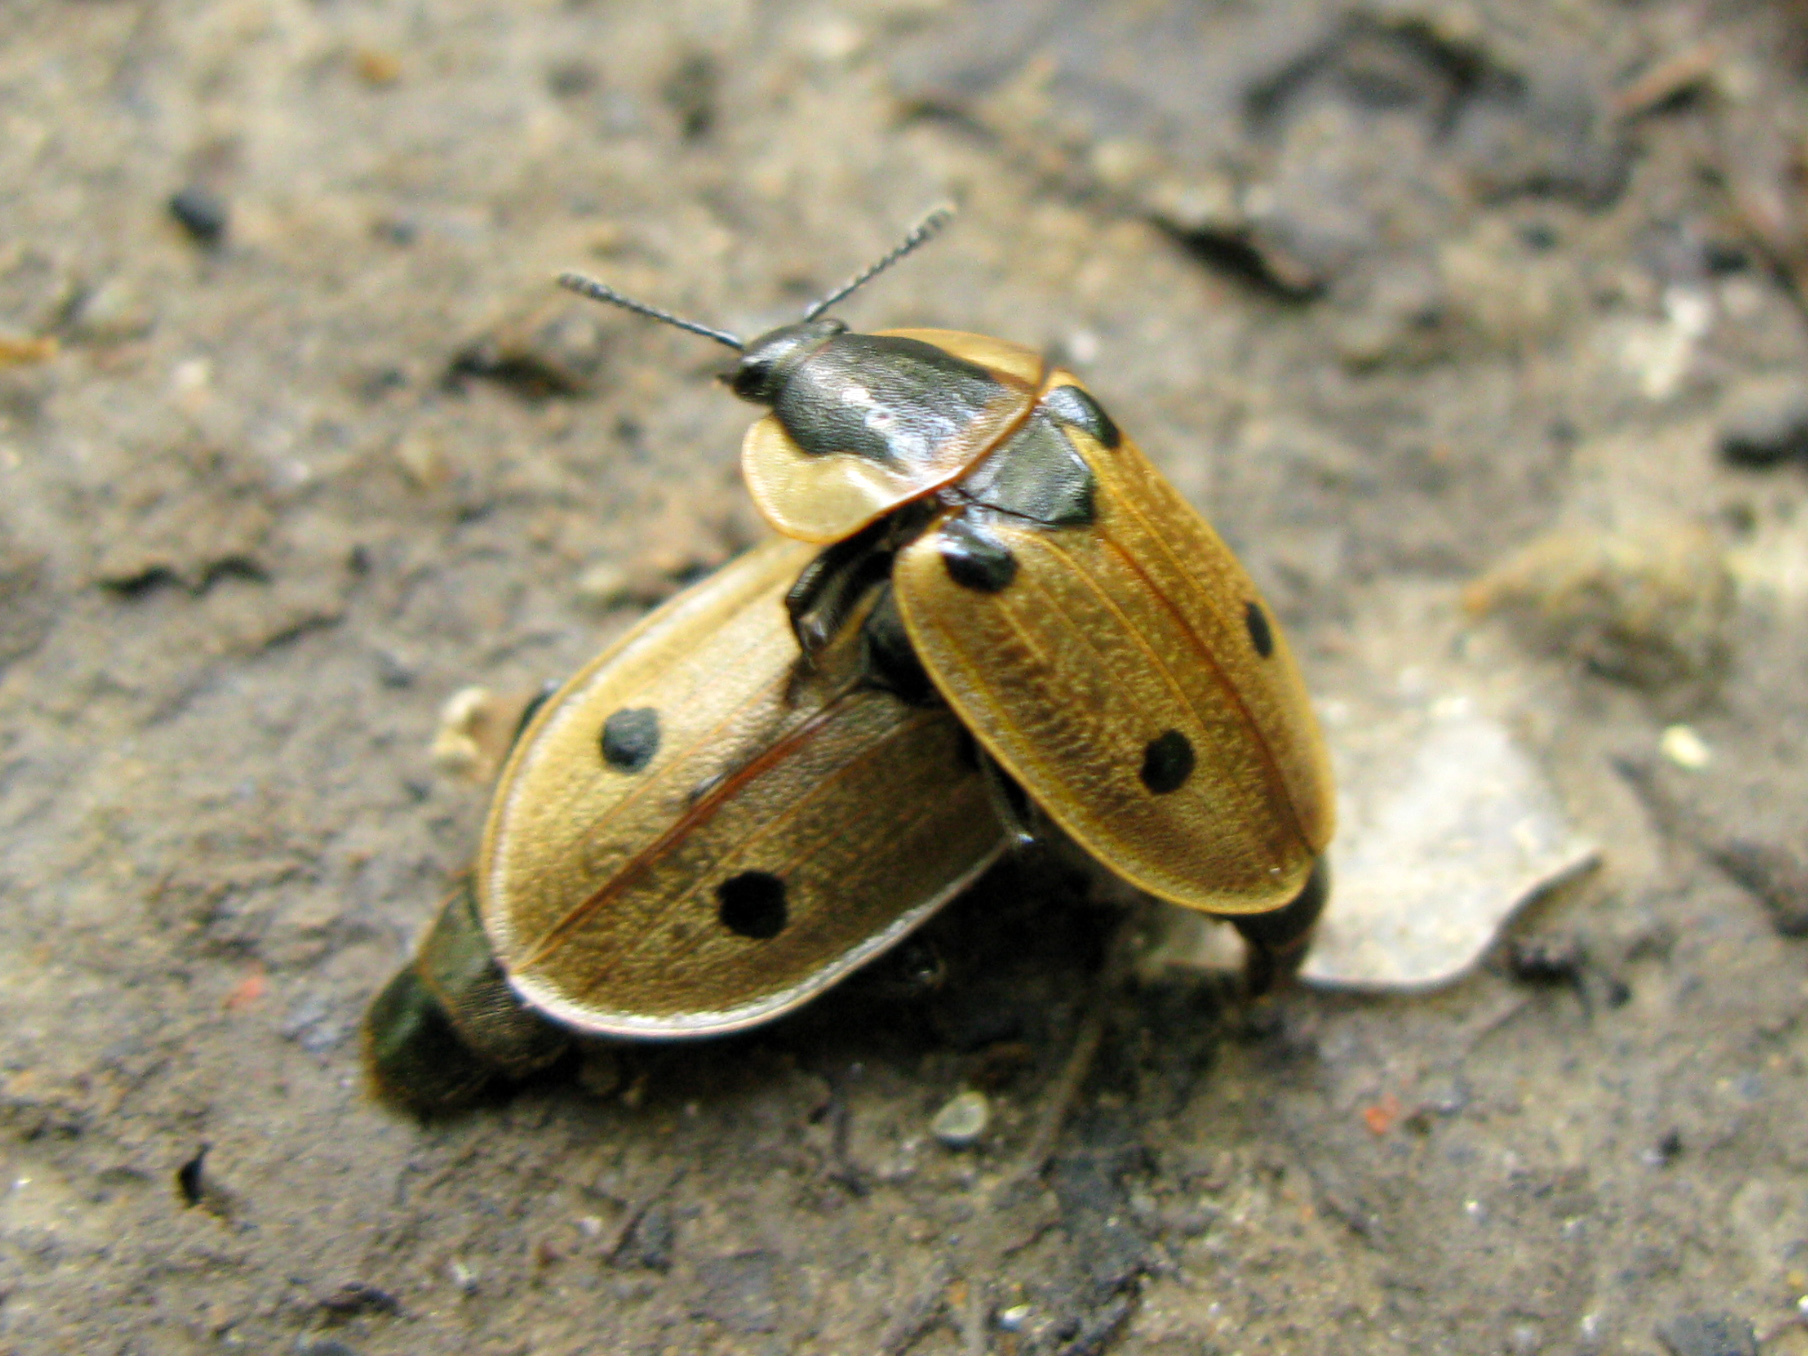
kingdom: Animalia
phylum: Arthropoda
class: Insecta
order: Coleoptera
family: Staphylinidae
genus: Dendroxena
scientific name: Dendroxena quadrimaculata
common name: Carrion beetle
